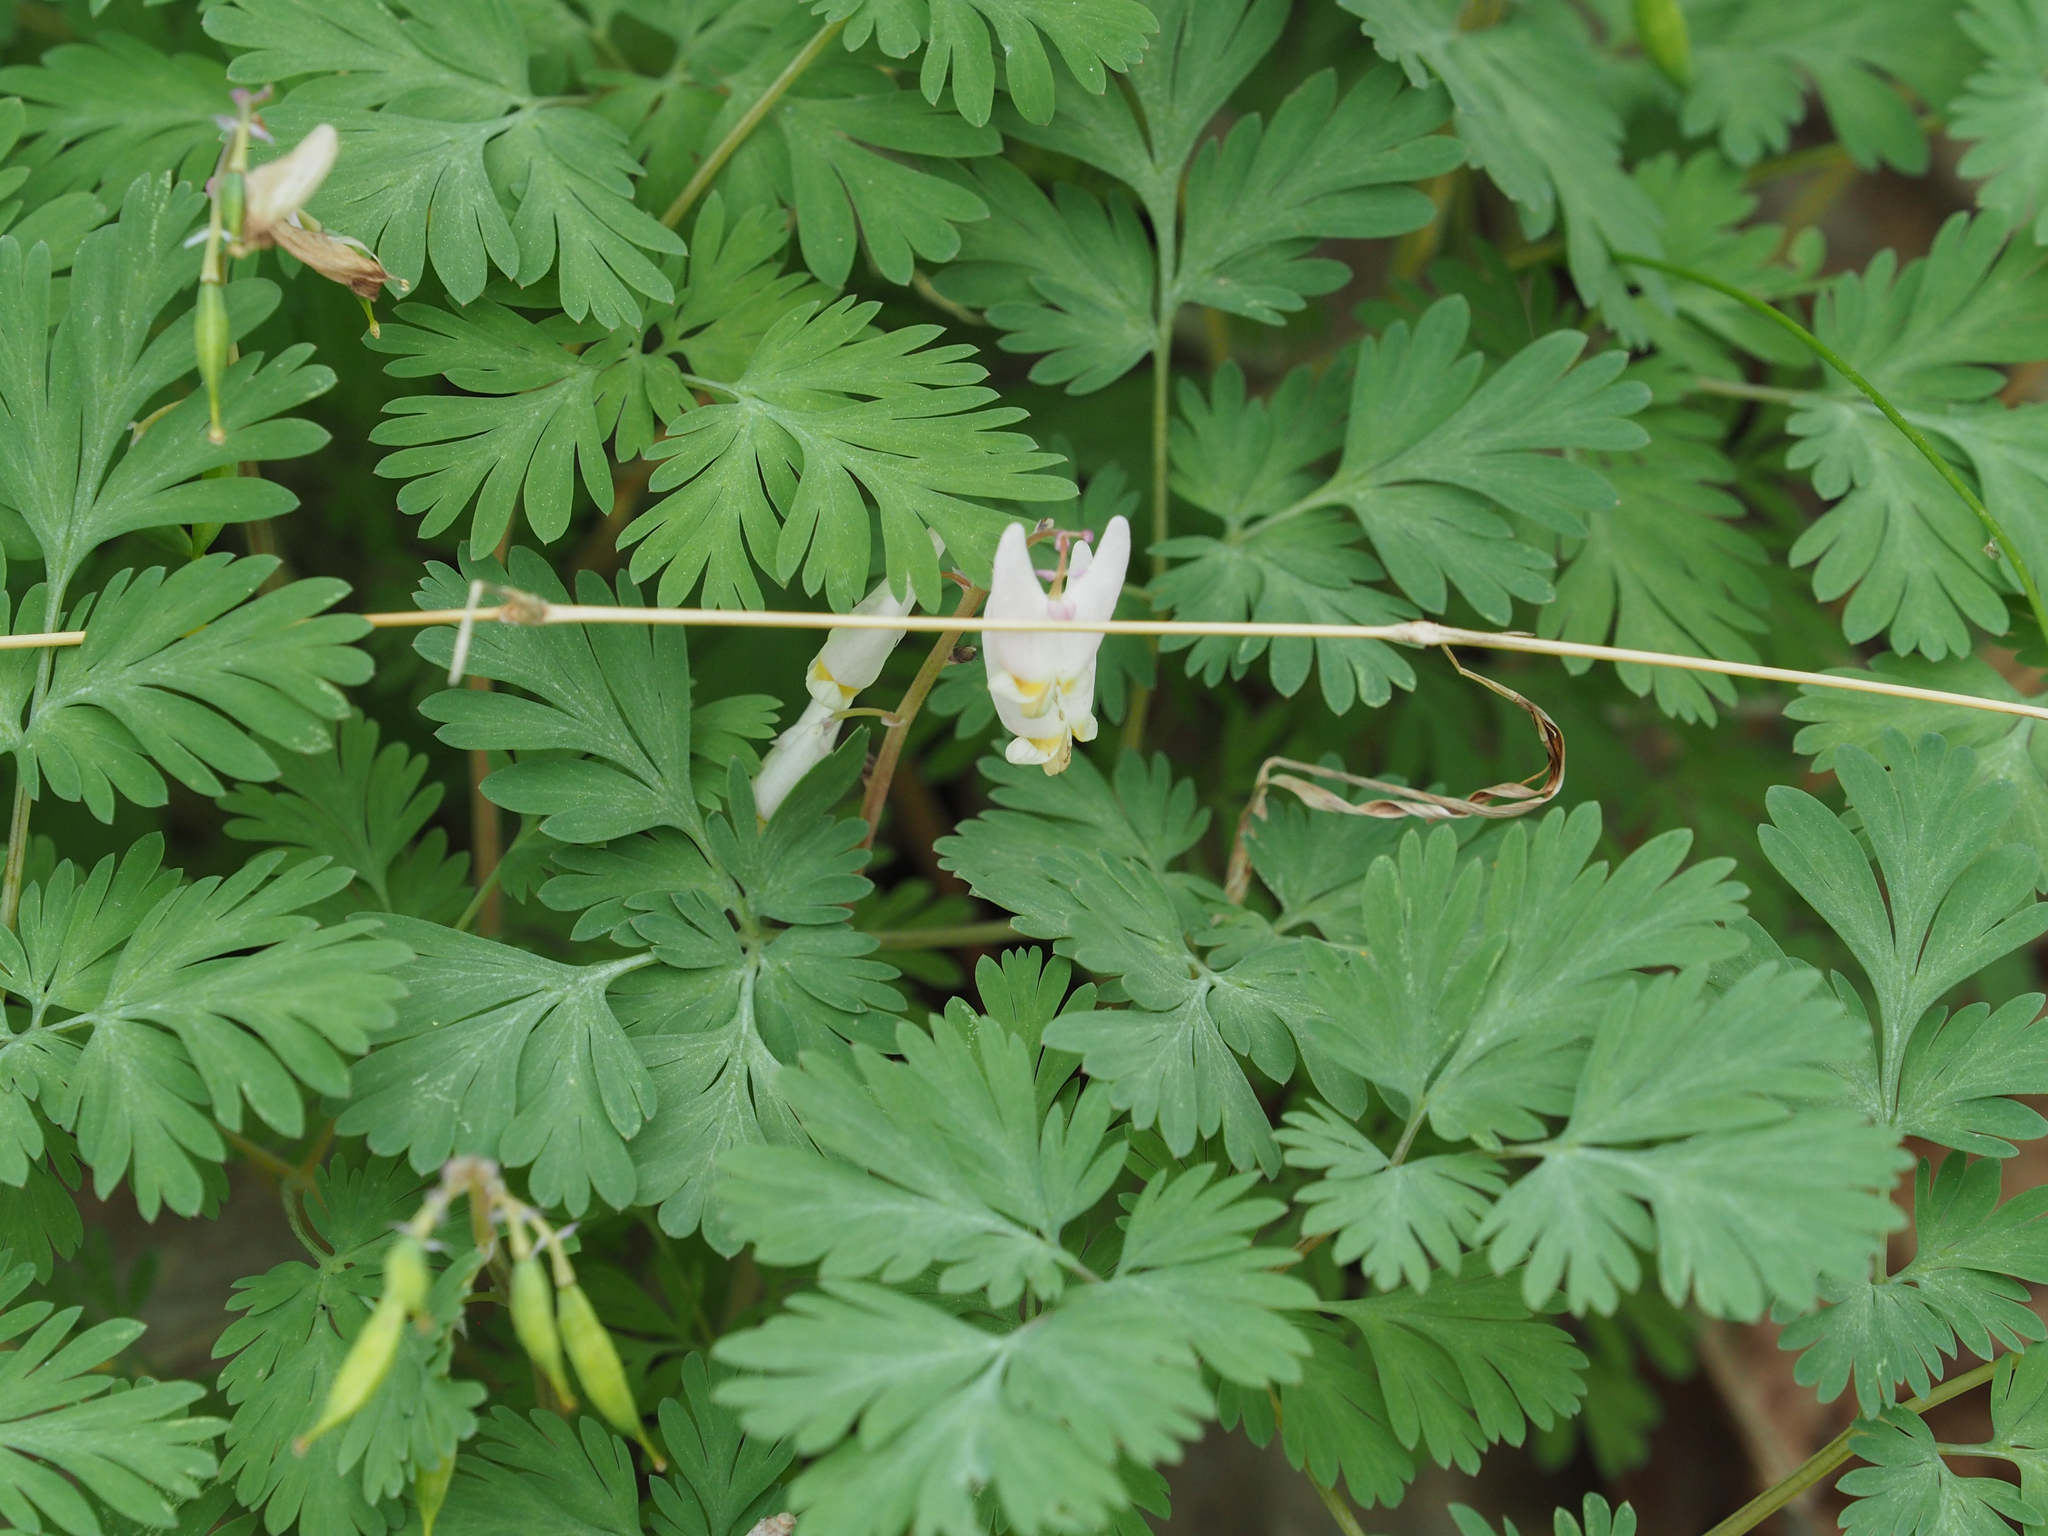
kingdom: Plantae
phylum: Tracheophyta
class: Magnoliopsida
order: Ranunculales
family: Papaveraceae
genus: Dicentra
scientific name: Dicentra cucullaria
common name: Dutchman's breeches
